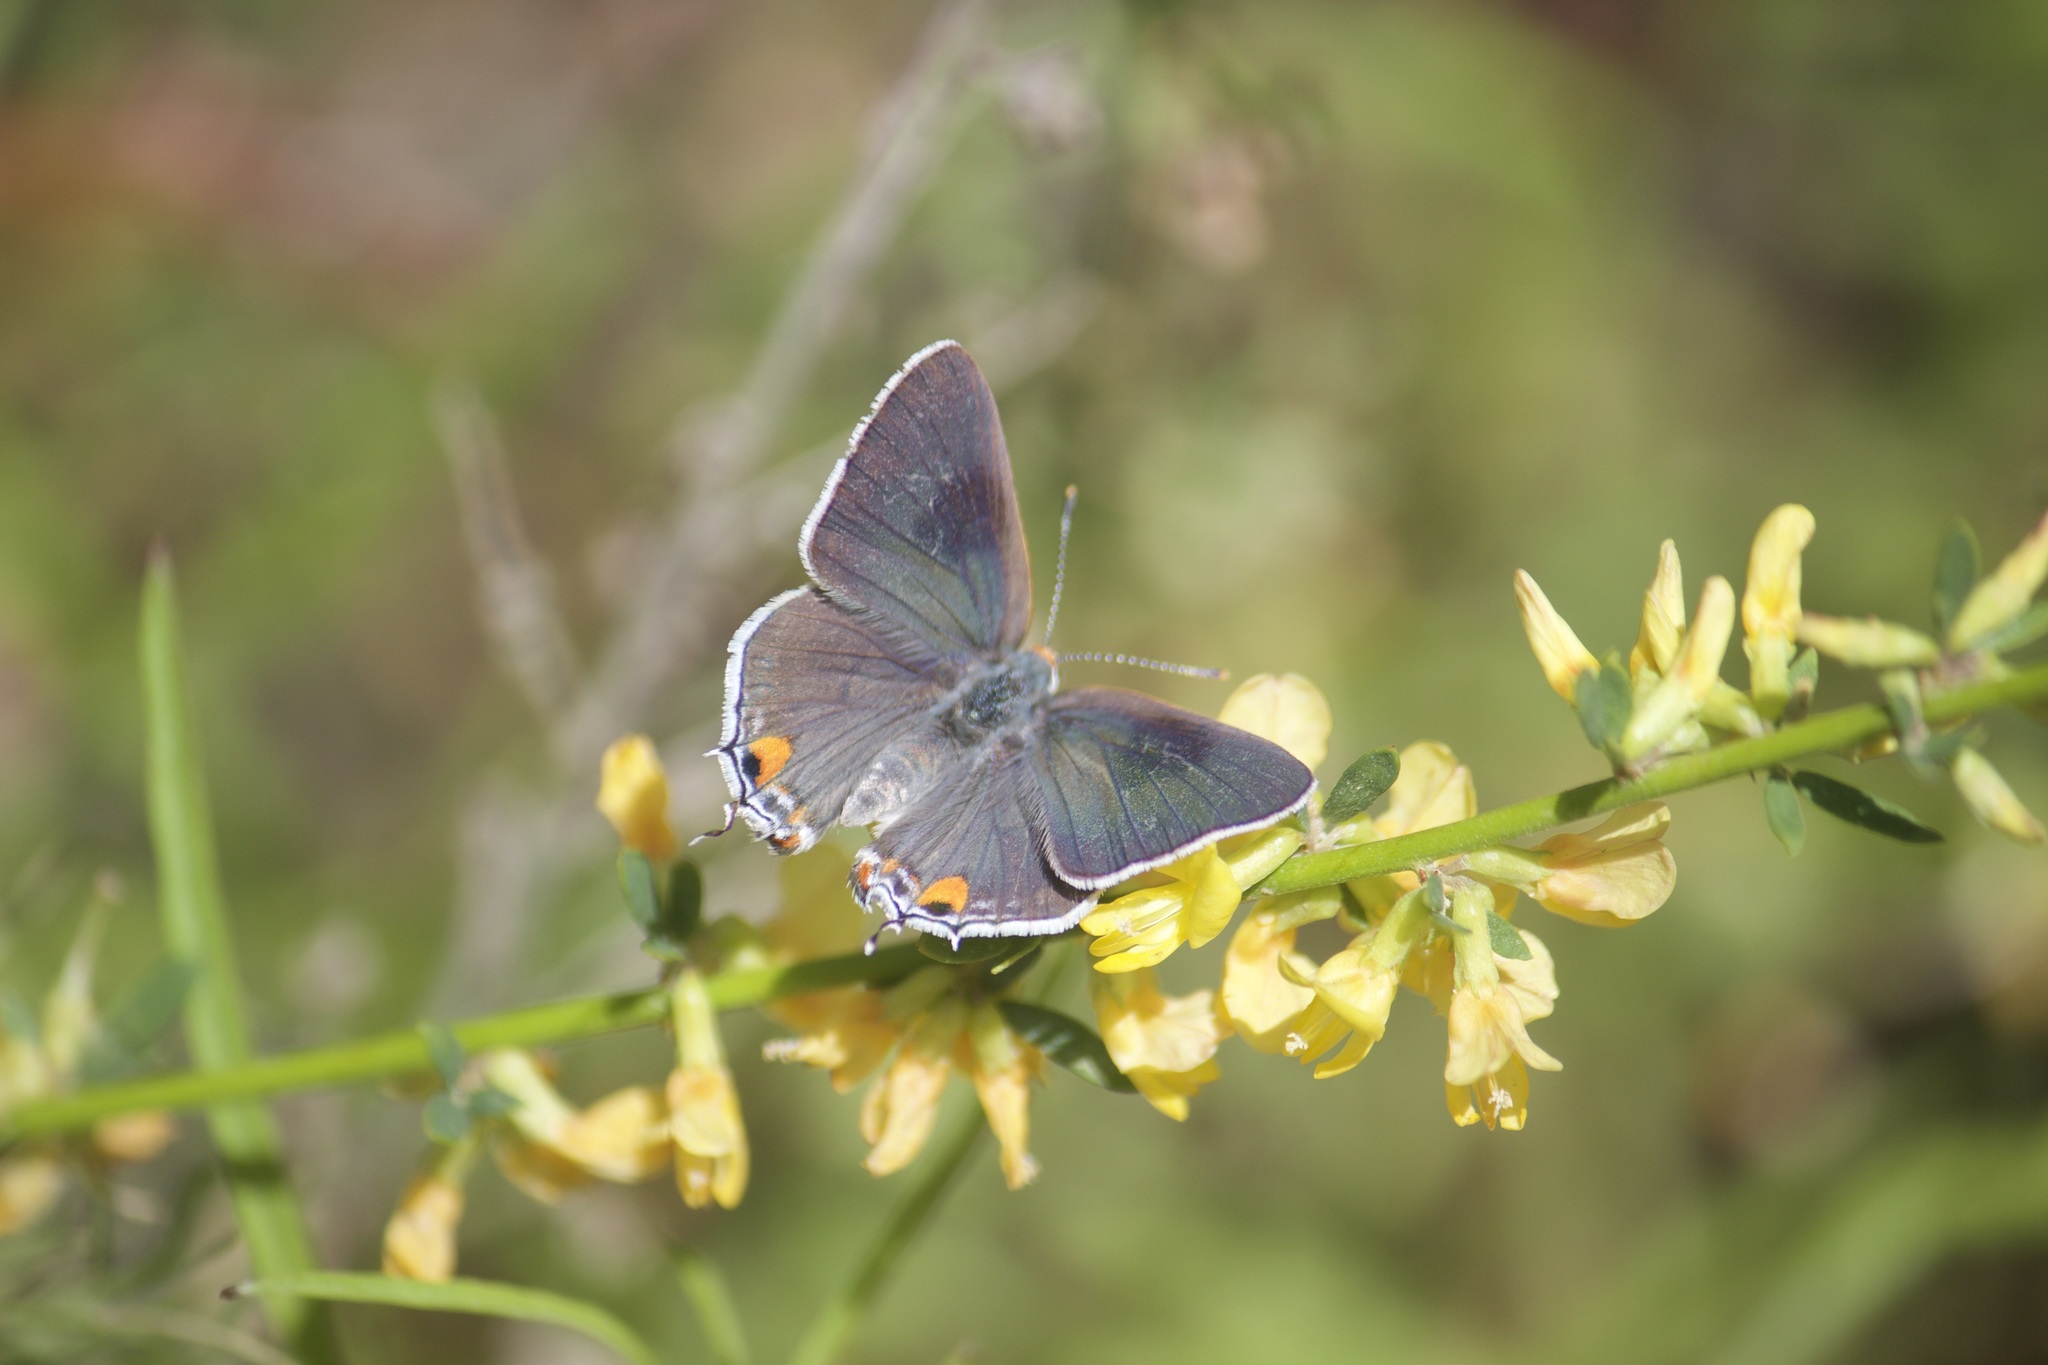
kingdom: Animalia
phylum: Arthropoda
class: Insecta
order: Lepidoptera
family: Lycaenidae
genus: Strymon
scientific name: Strymon melinus
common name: Gray hairstreak
